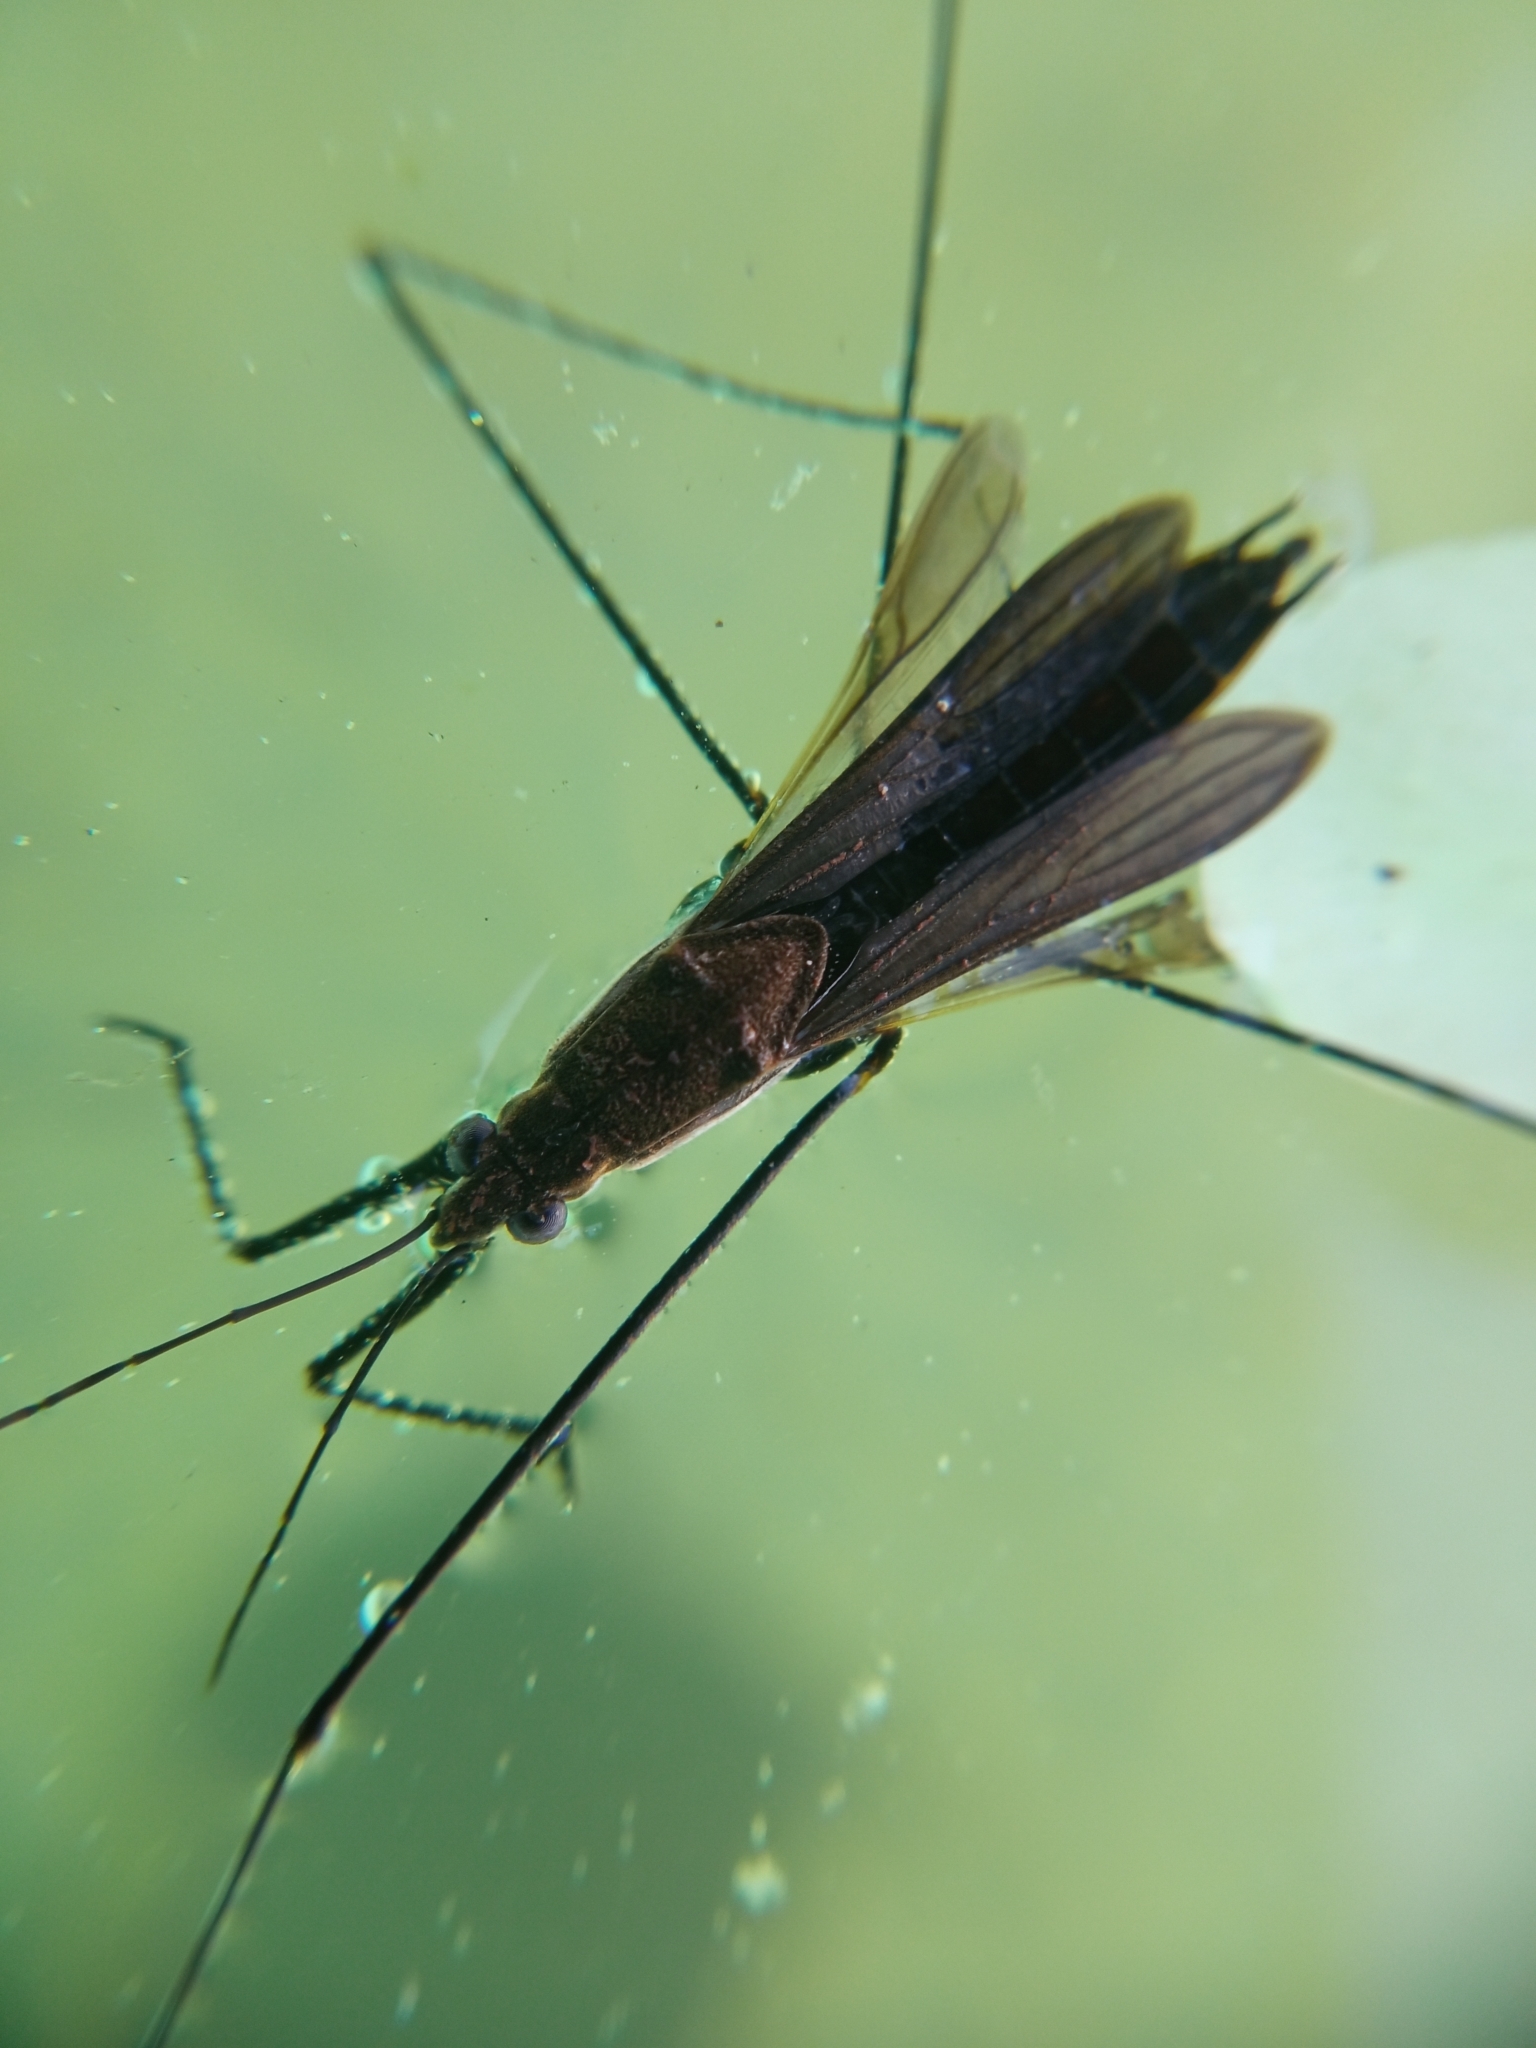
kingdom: Animalia
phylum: Arthropoda
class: Insecta
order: Hemiptera
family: Gerridae
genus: Aquarius
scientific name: Aquarius paludum
